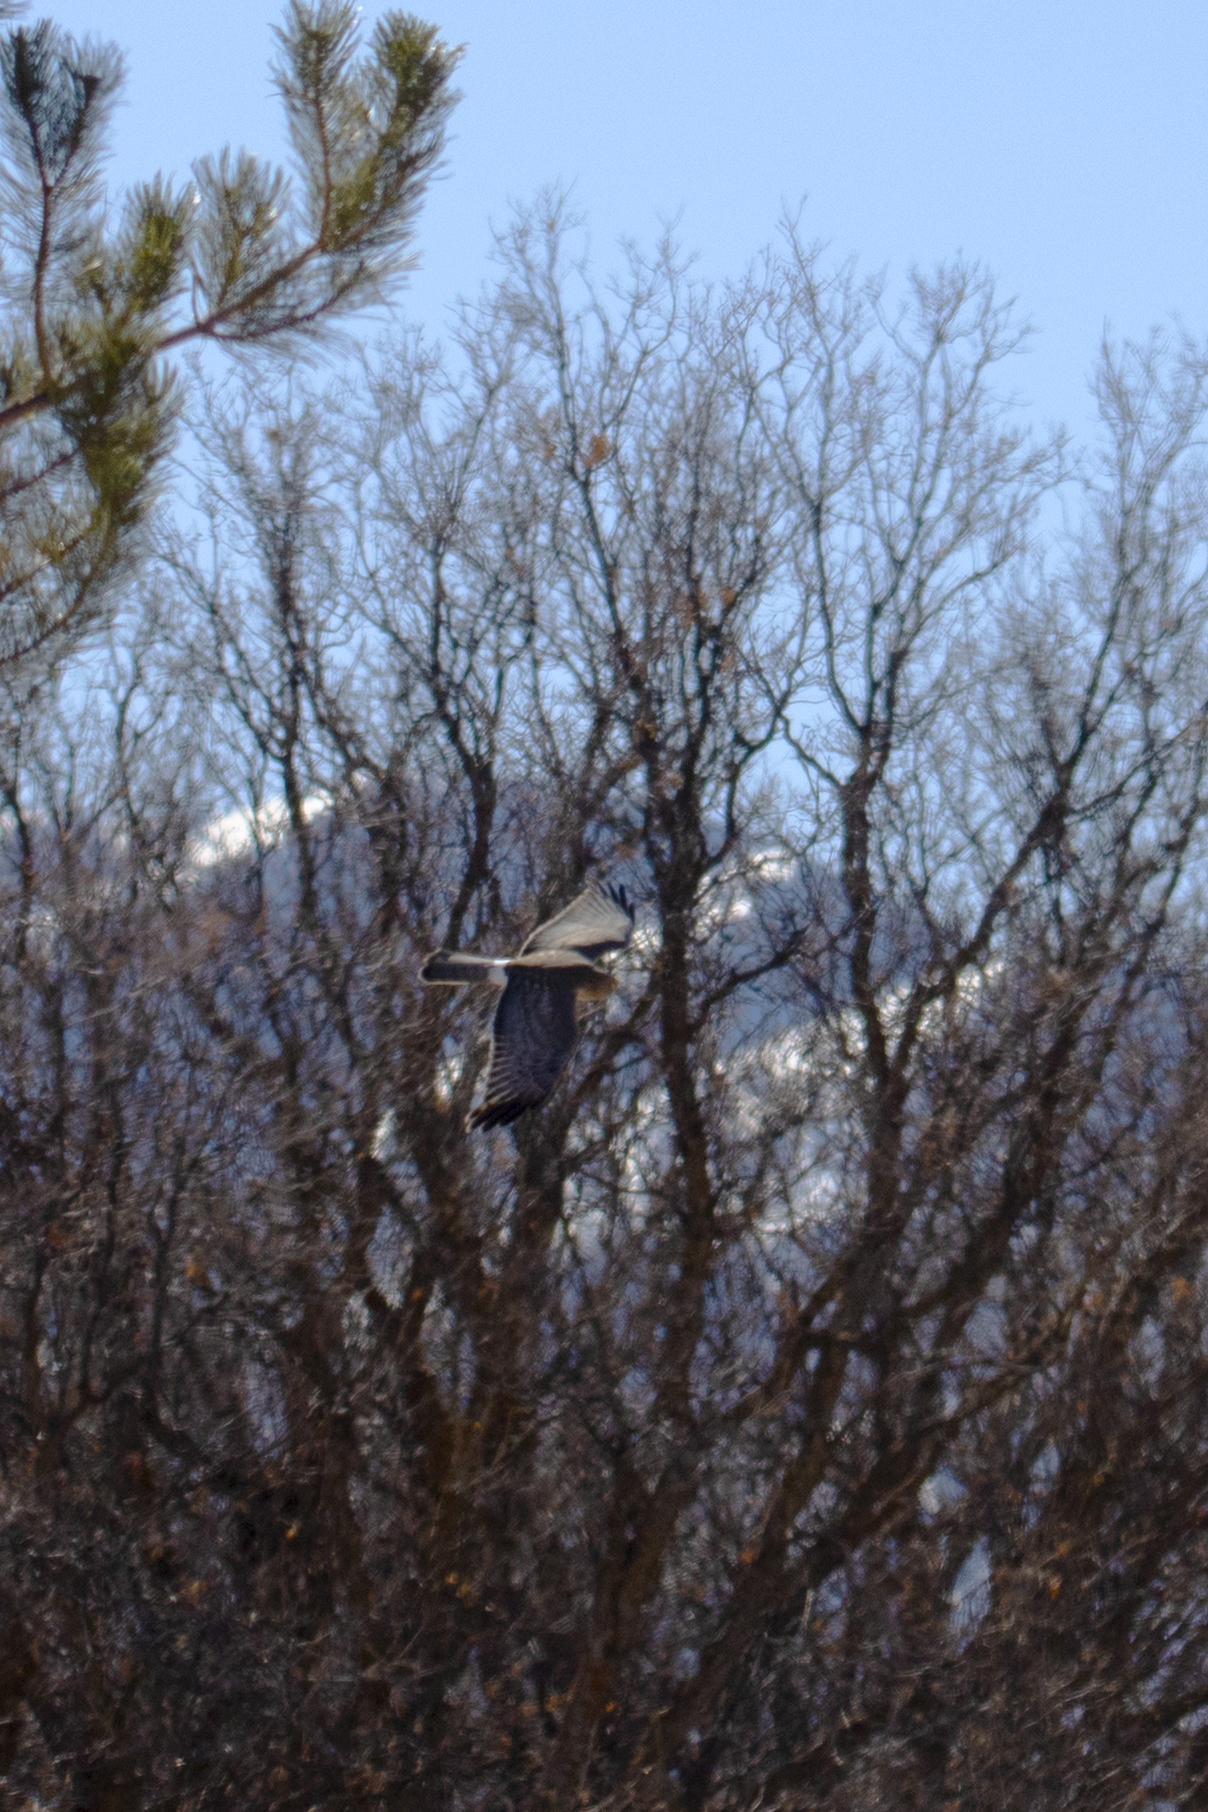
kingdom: Animalia
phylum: Chordata
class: Aves
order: Accipitriformes
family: Accipitridae
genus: Circus
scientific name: Circus cyaneus
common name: Hen harrier
